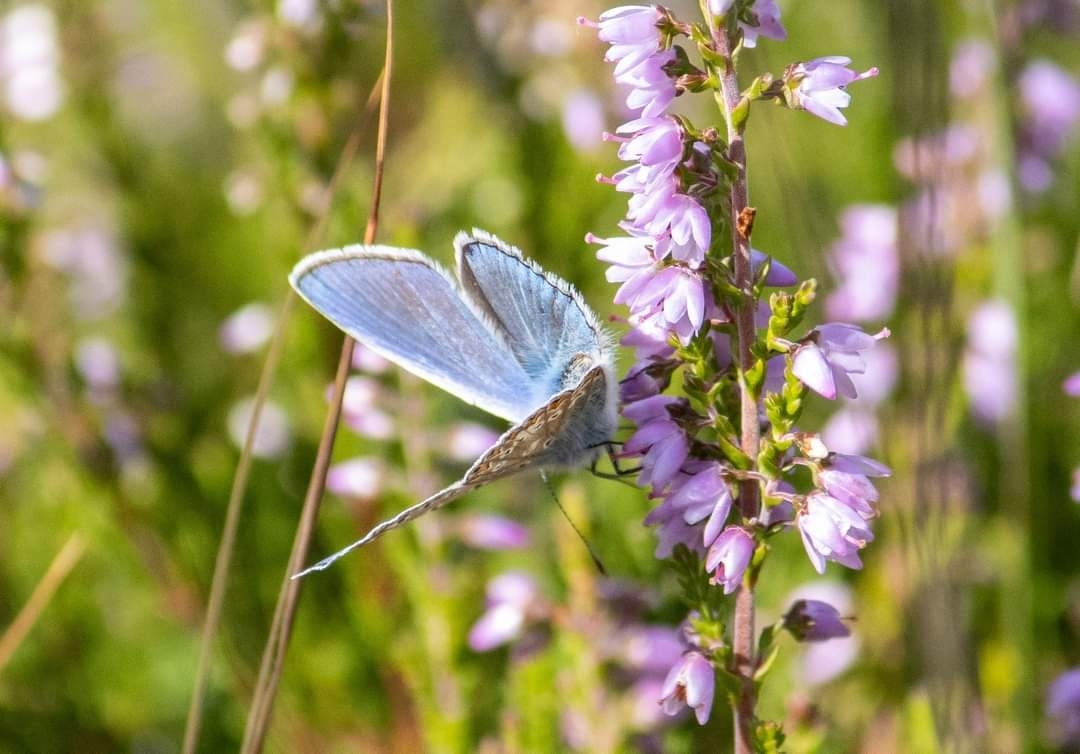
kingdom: Animalia
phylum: Arthropoda
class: Insecta
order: Lepidoptera
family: Lycaenidae
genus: Polyommatus
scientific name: Polyommatus icarus
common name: Common blue
